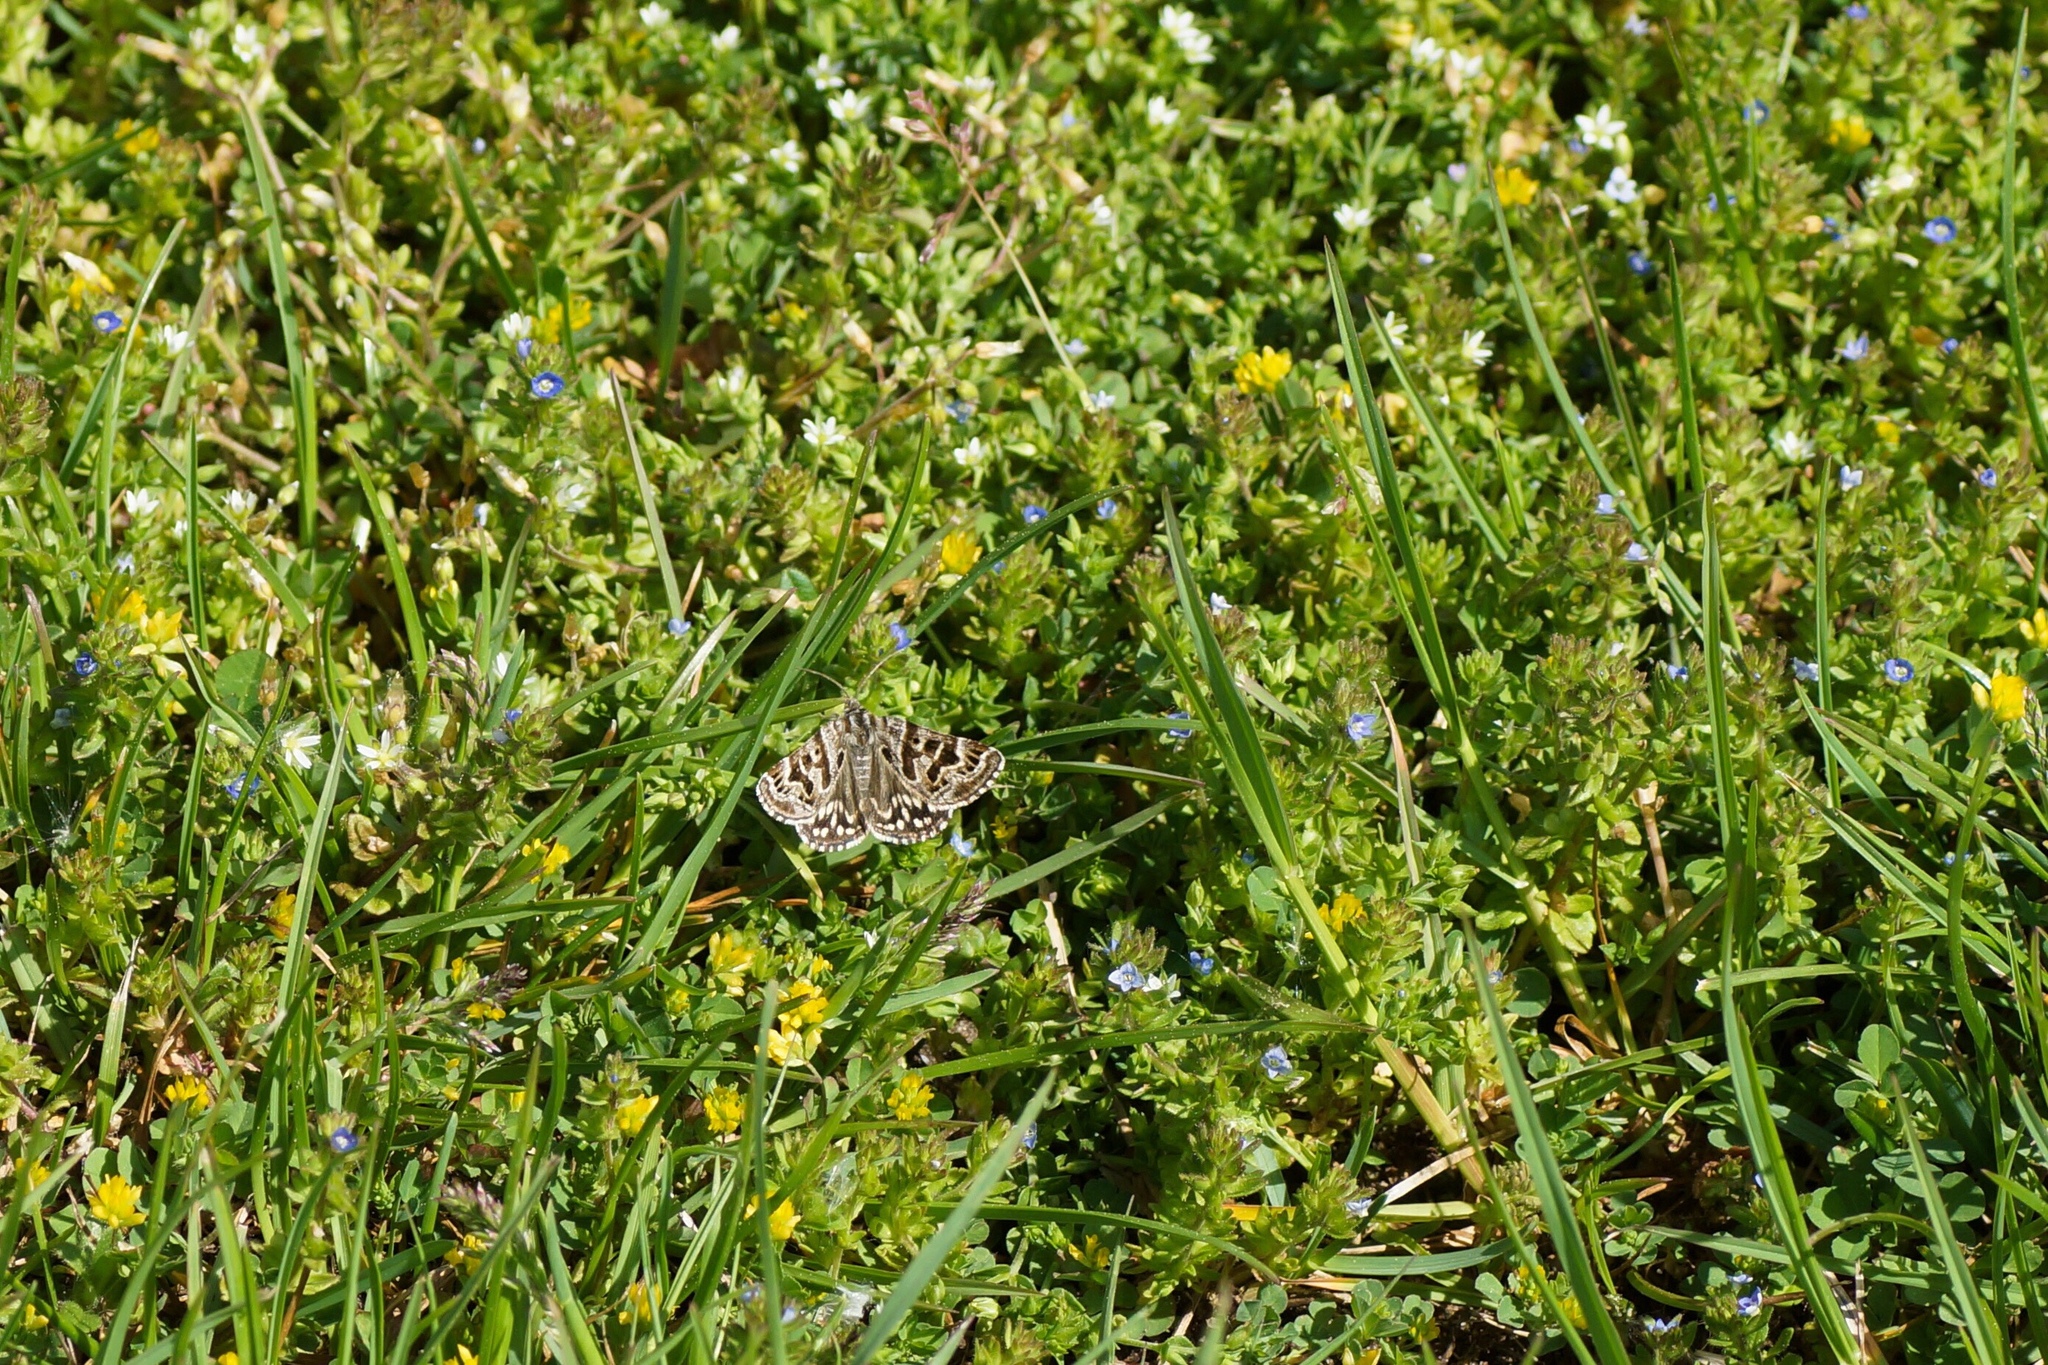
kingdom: Animalia
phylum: Arthropoda
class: Insecta
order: Lepidoptera
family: Erebidae
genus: Callistege
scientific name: Callistege mi
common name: Mother shipton
